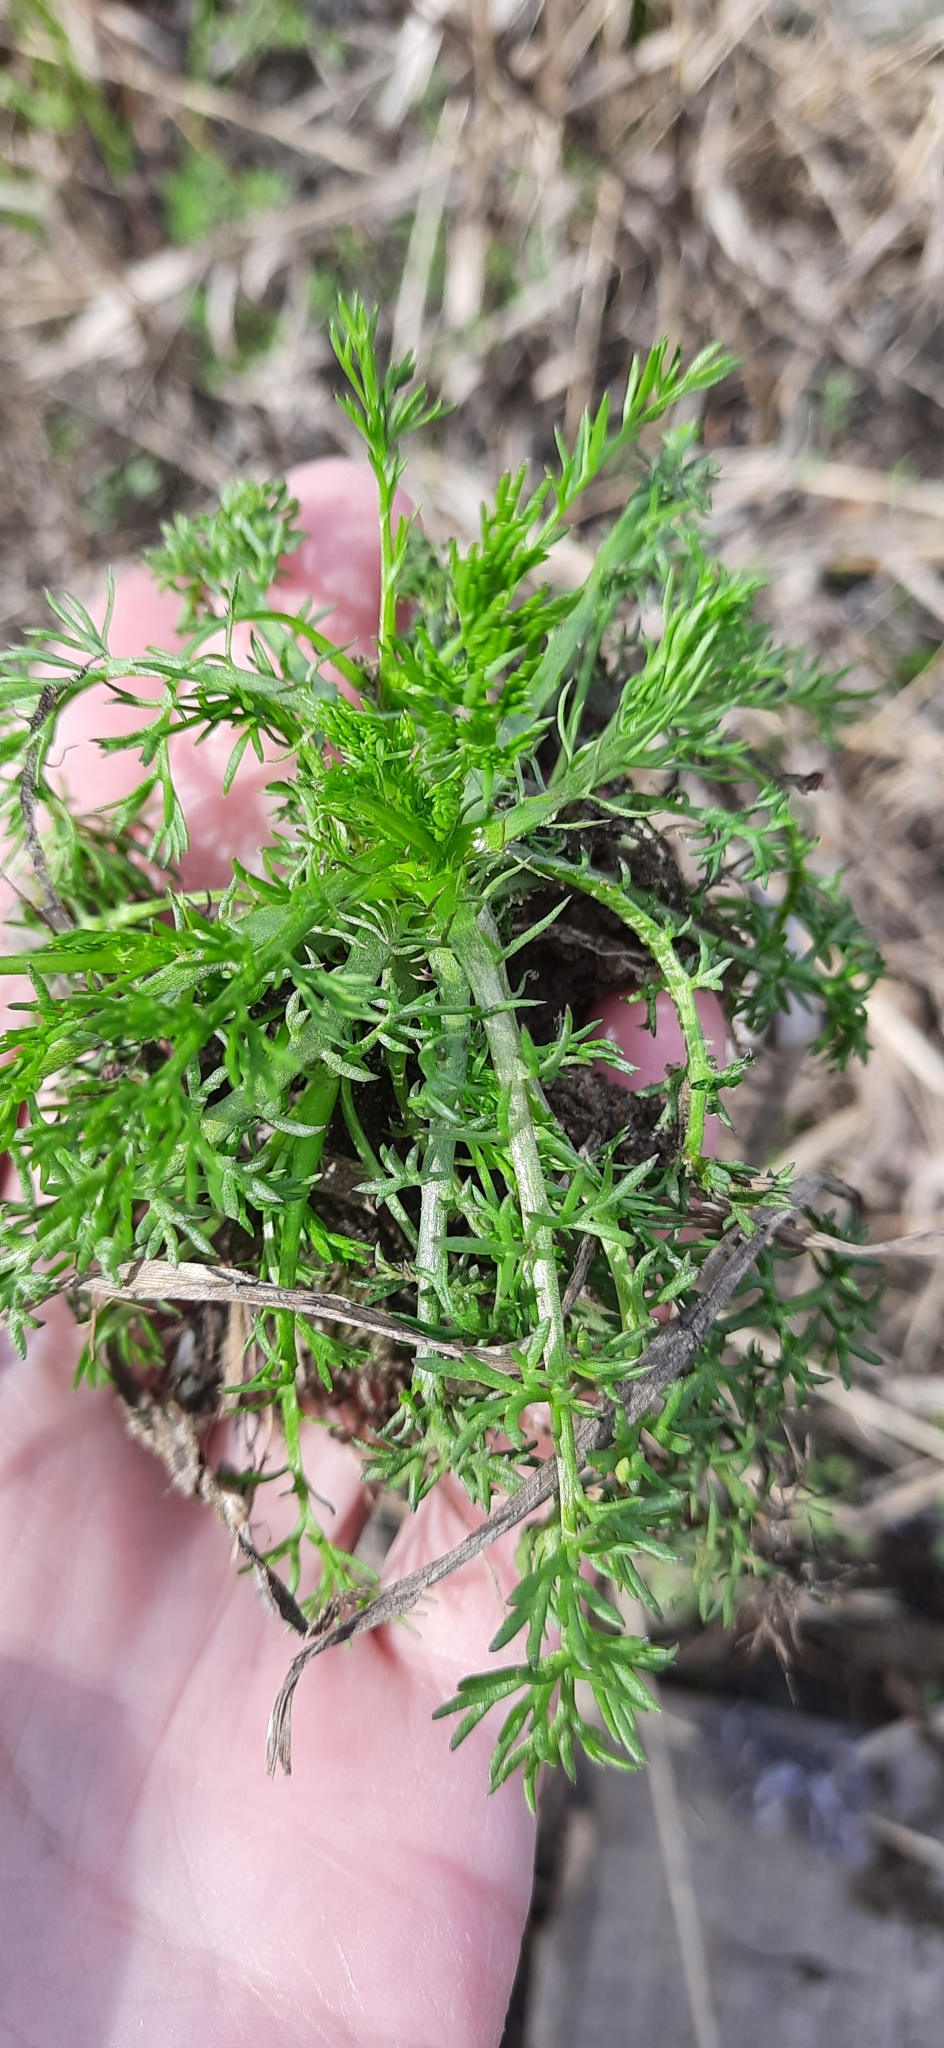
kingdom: Plantae
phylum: Tracheophyta
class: Magnoliopsida
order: Asterales
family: Asteraceae
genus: Matricaria
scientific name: Matricaria discoidea
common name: Disc mayweed
